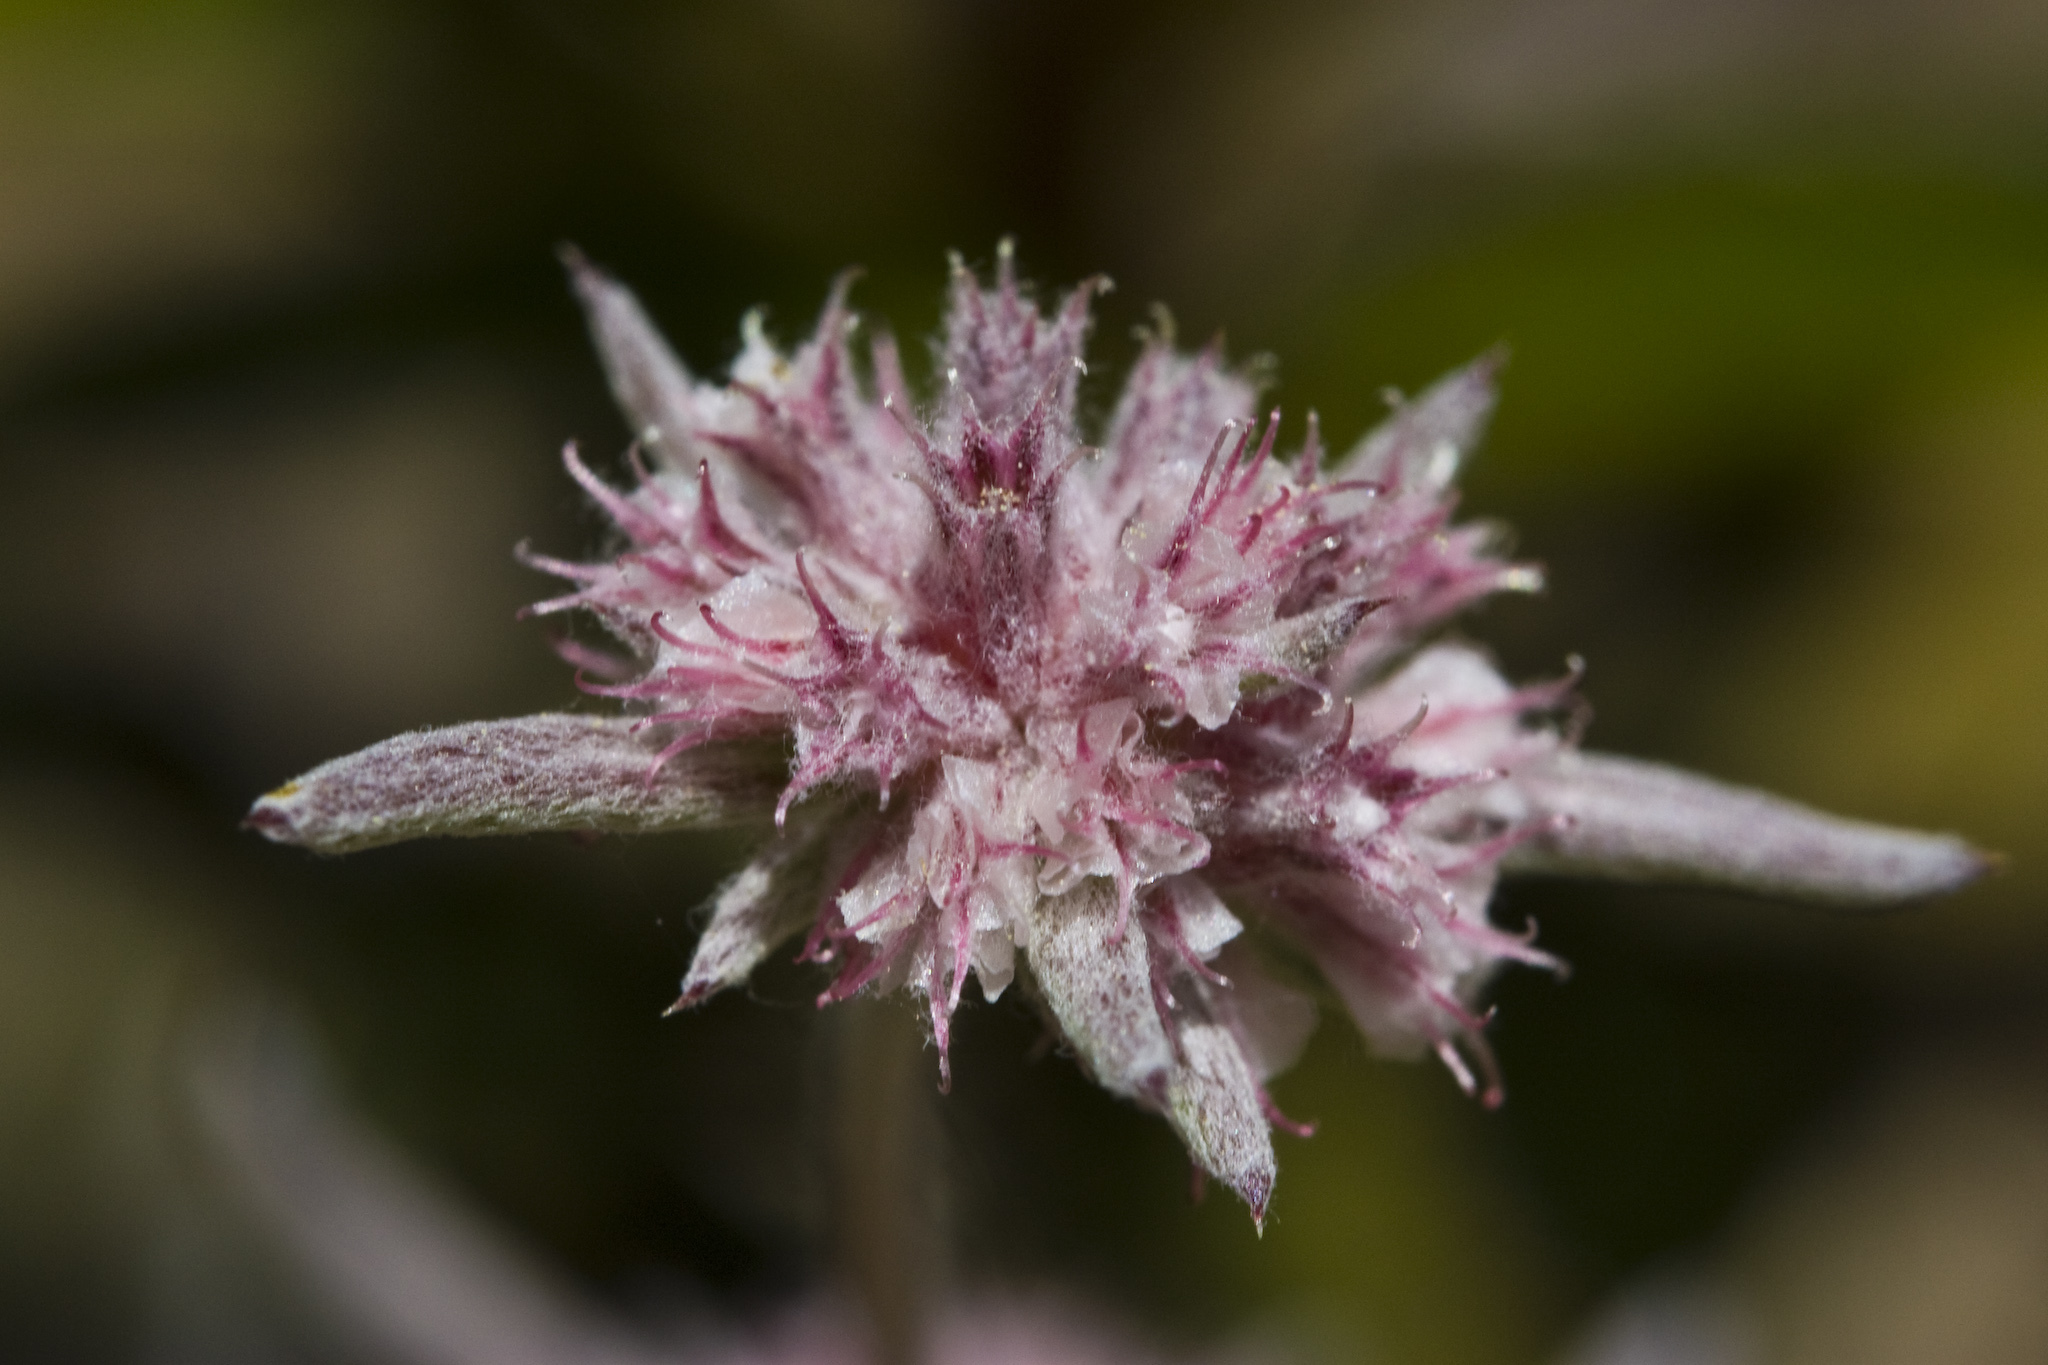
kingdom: Plantae
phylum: Tracheophyta
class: Magnoliopsida
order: Caryophyllales
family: Polygonaceae
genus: Chorizanthe
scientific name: Chorizanthe membranacea
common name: Pink spineflower
